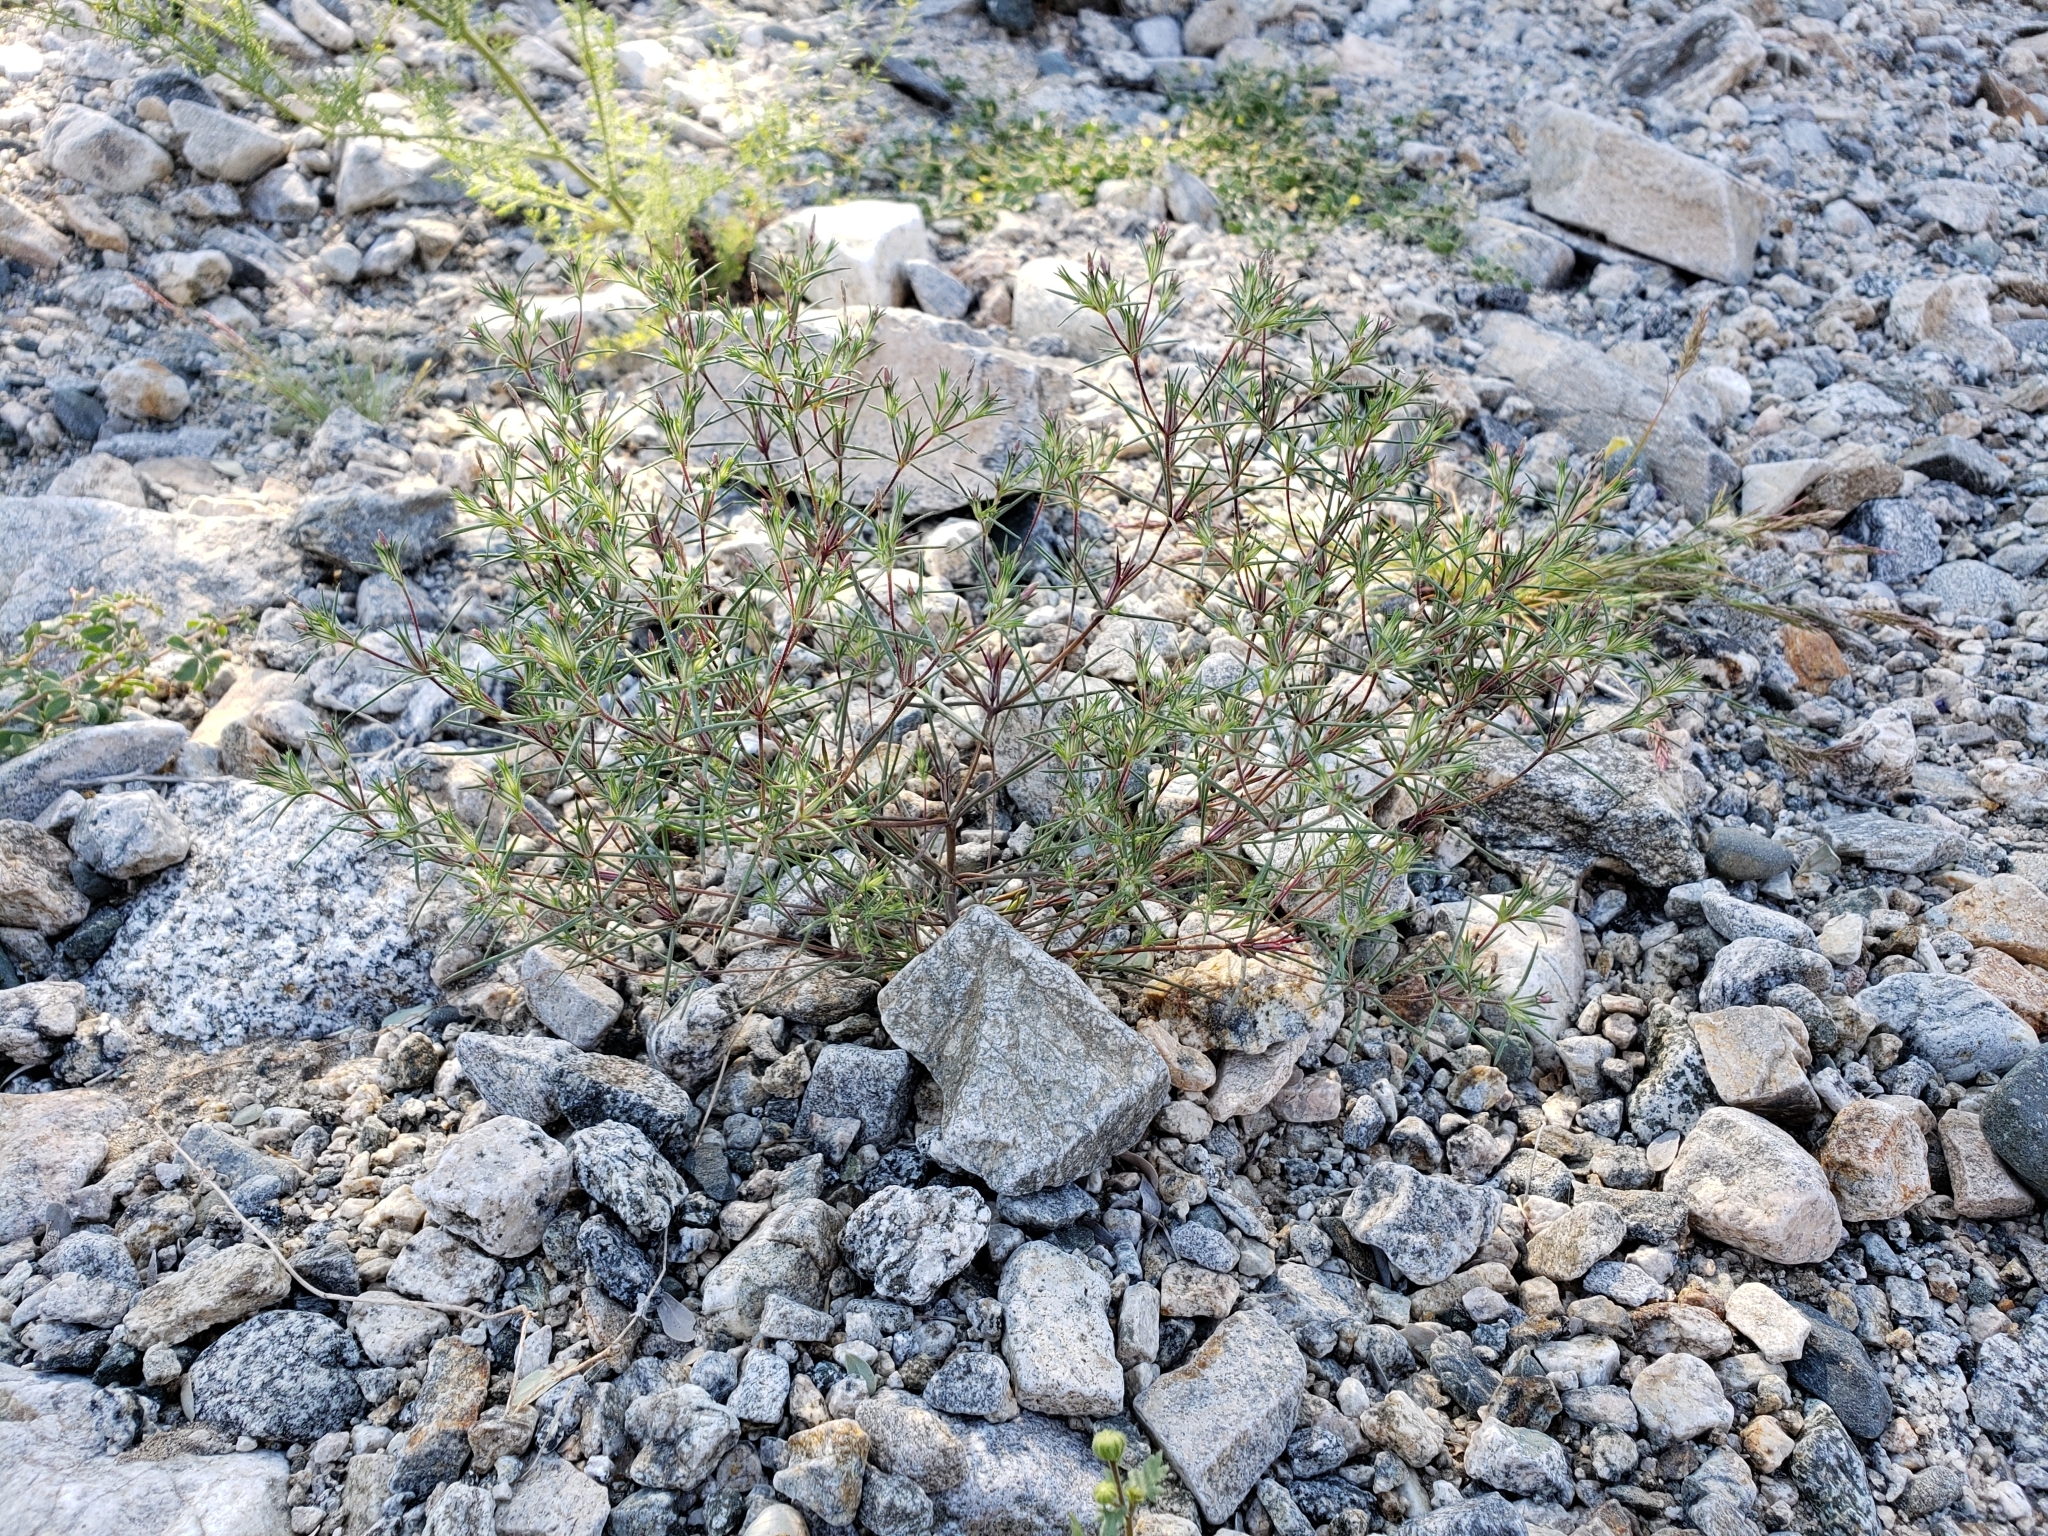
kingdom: Plantae
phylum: Tracheophyta
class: Magnoliopsida
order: Ericales
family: Polemoniaceae
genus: Linanthus
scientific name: Linanthus jonesii
